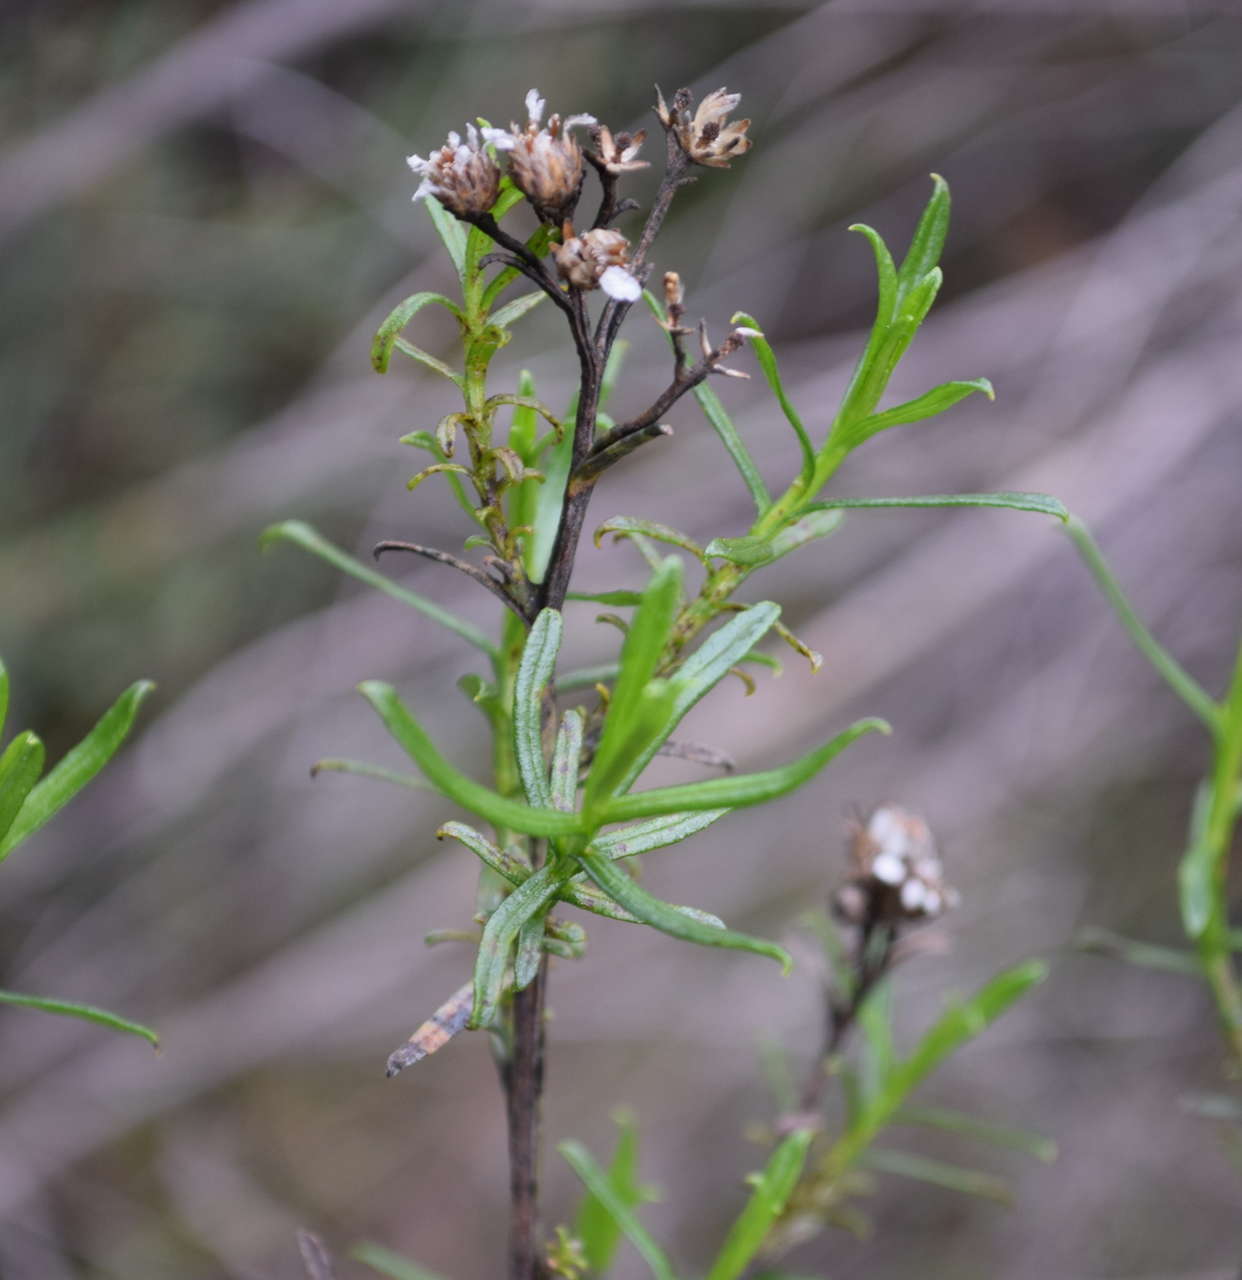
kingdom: Plantae
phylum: Tracheophyta
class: Magnoliopsida
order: Asterales
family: Asteraceae
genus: Ixodia
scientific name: Ixodia achillaeoides
